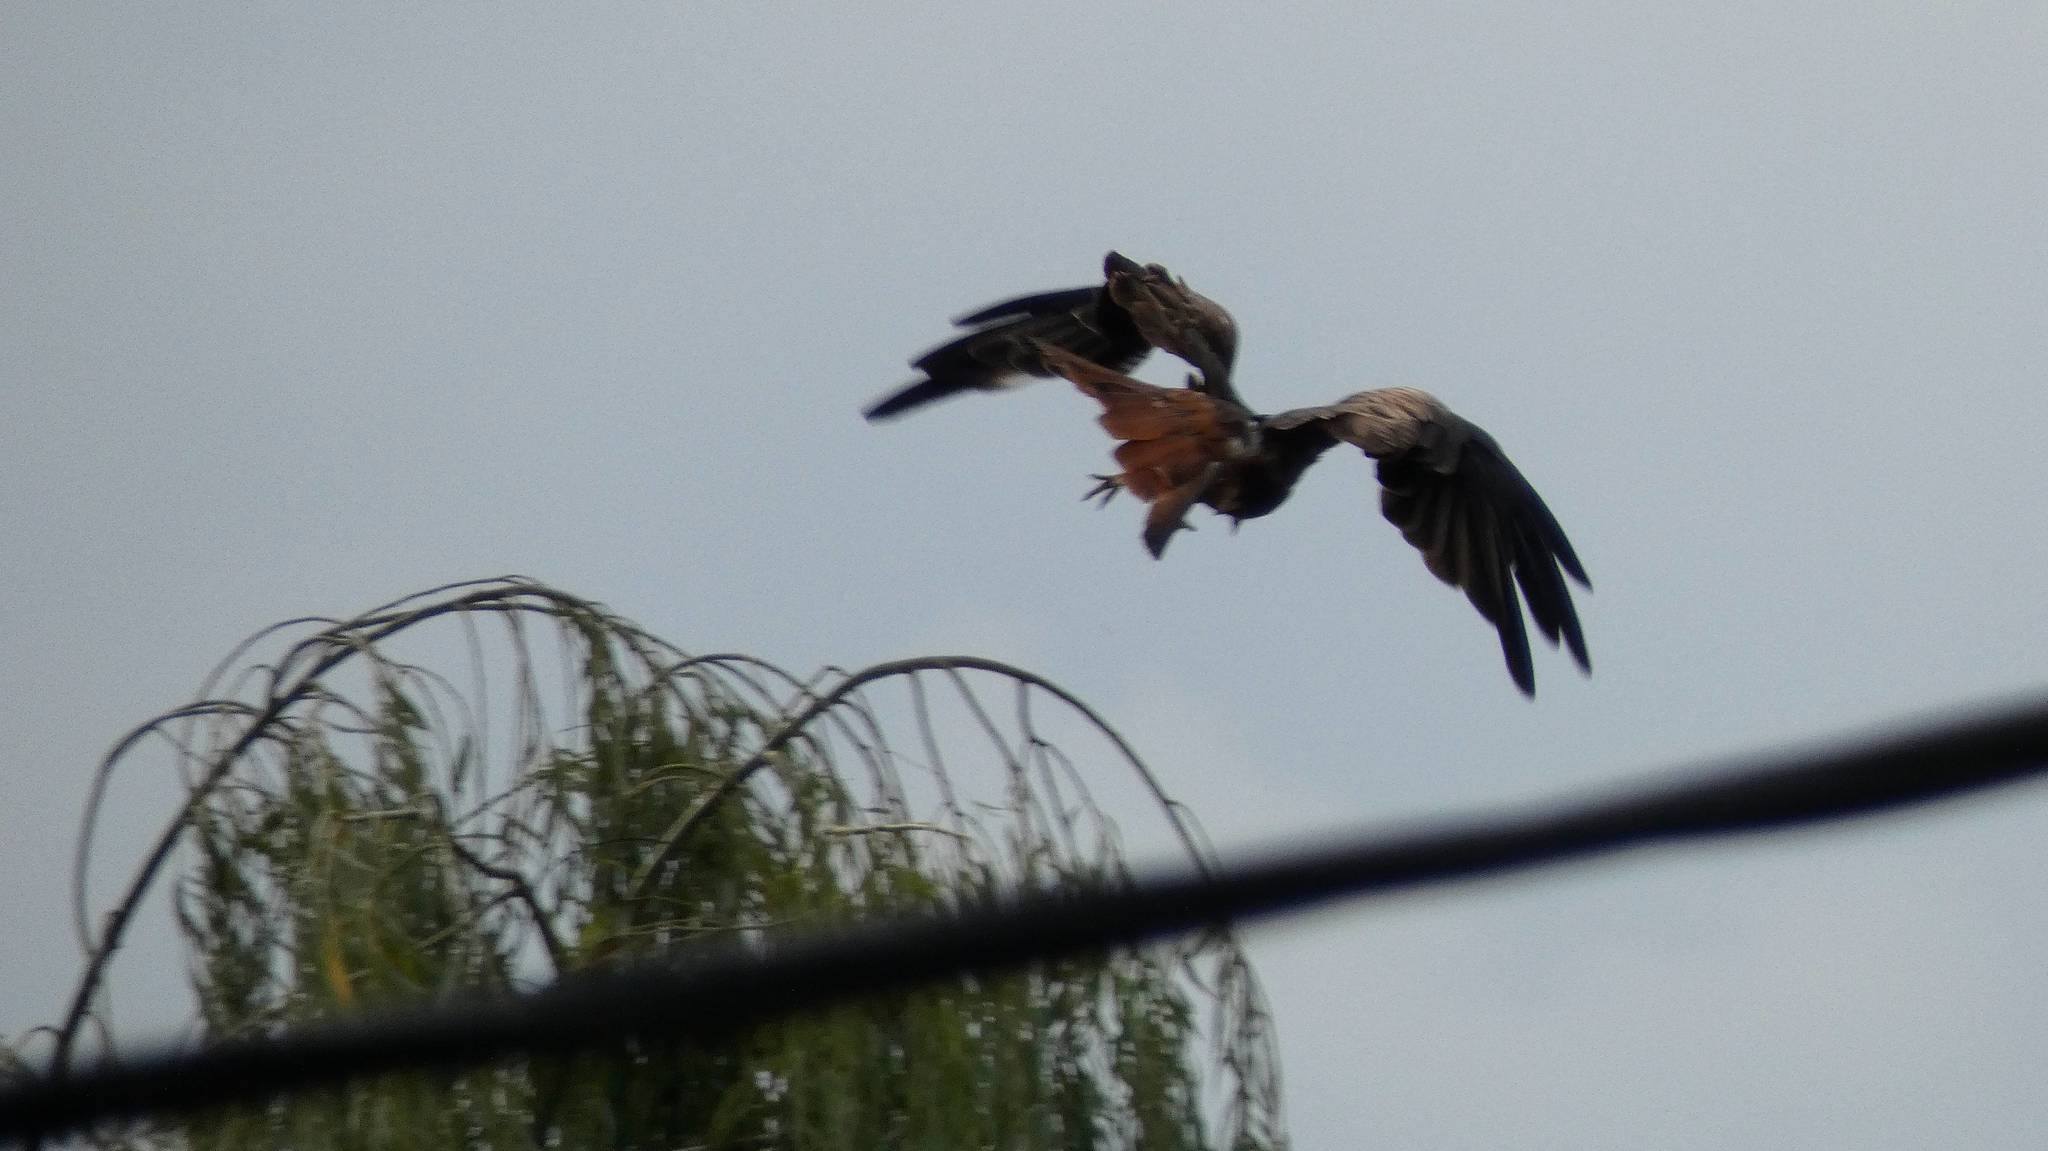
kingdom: Animalia
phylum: Chordata
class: Aves
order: Accipitriformes
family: Accipitridae
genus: Milvus
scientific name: Milvus milvus
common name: Red kite
